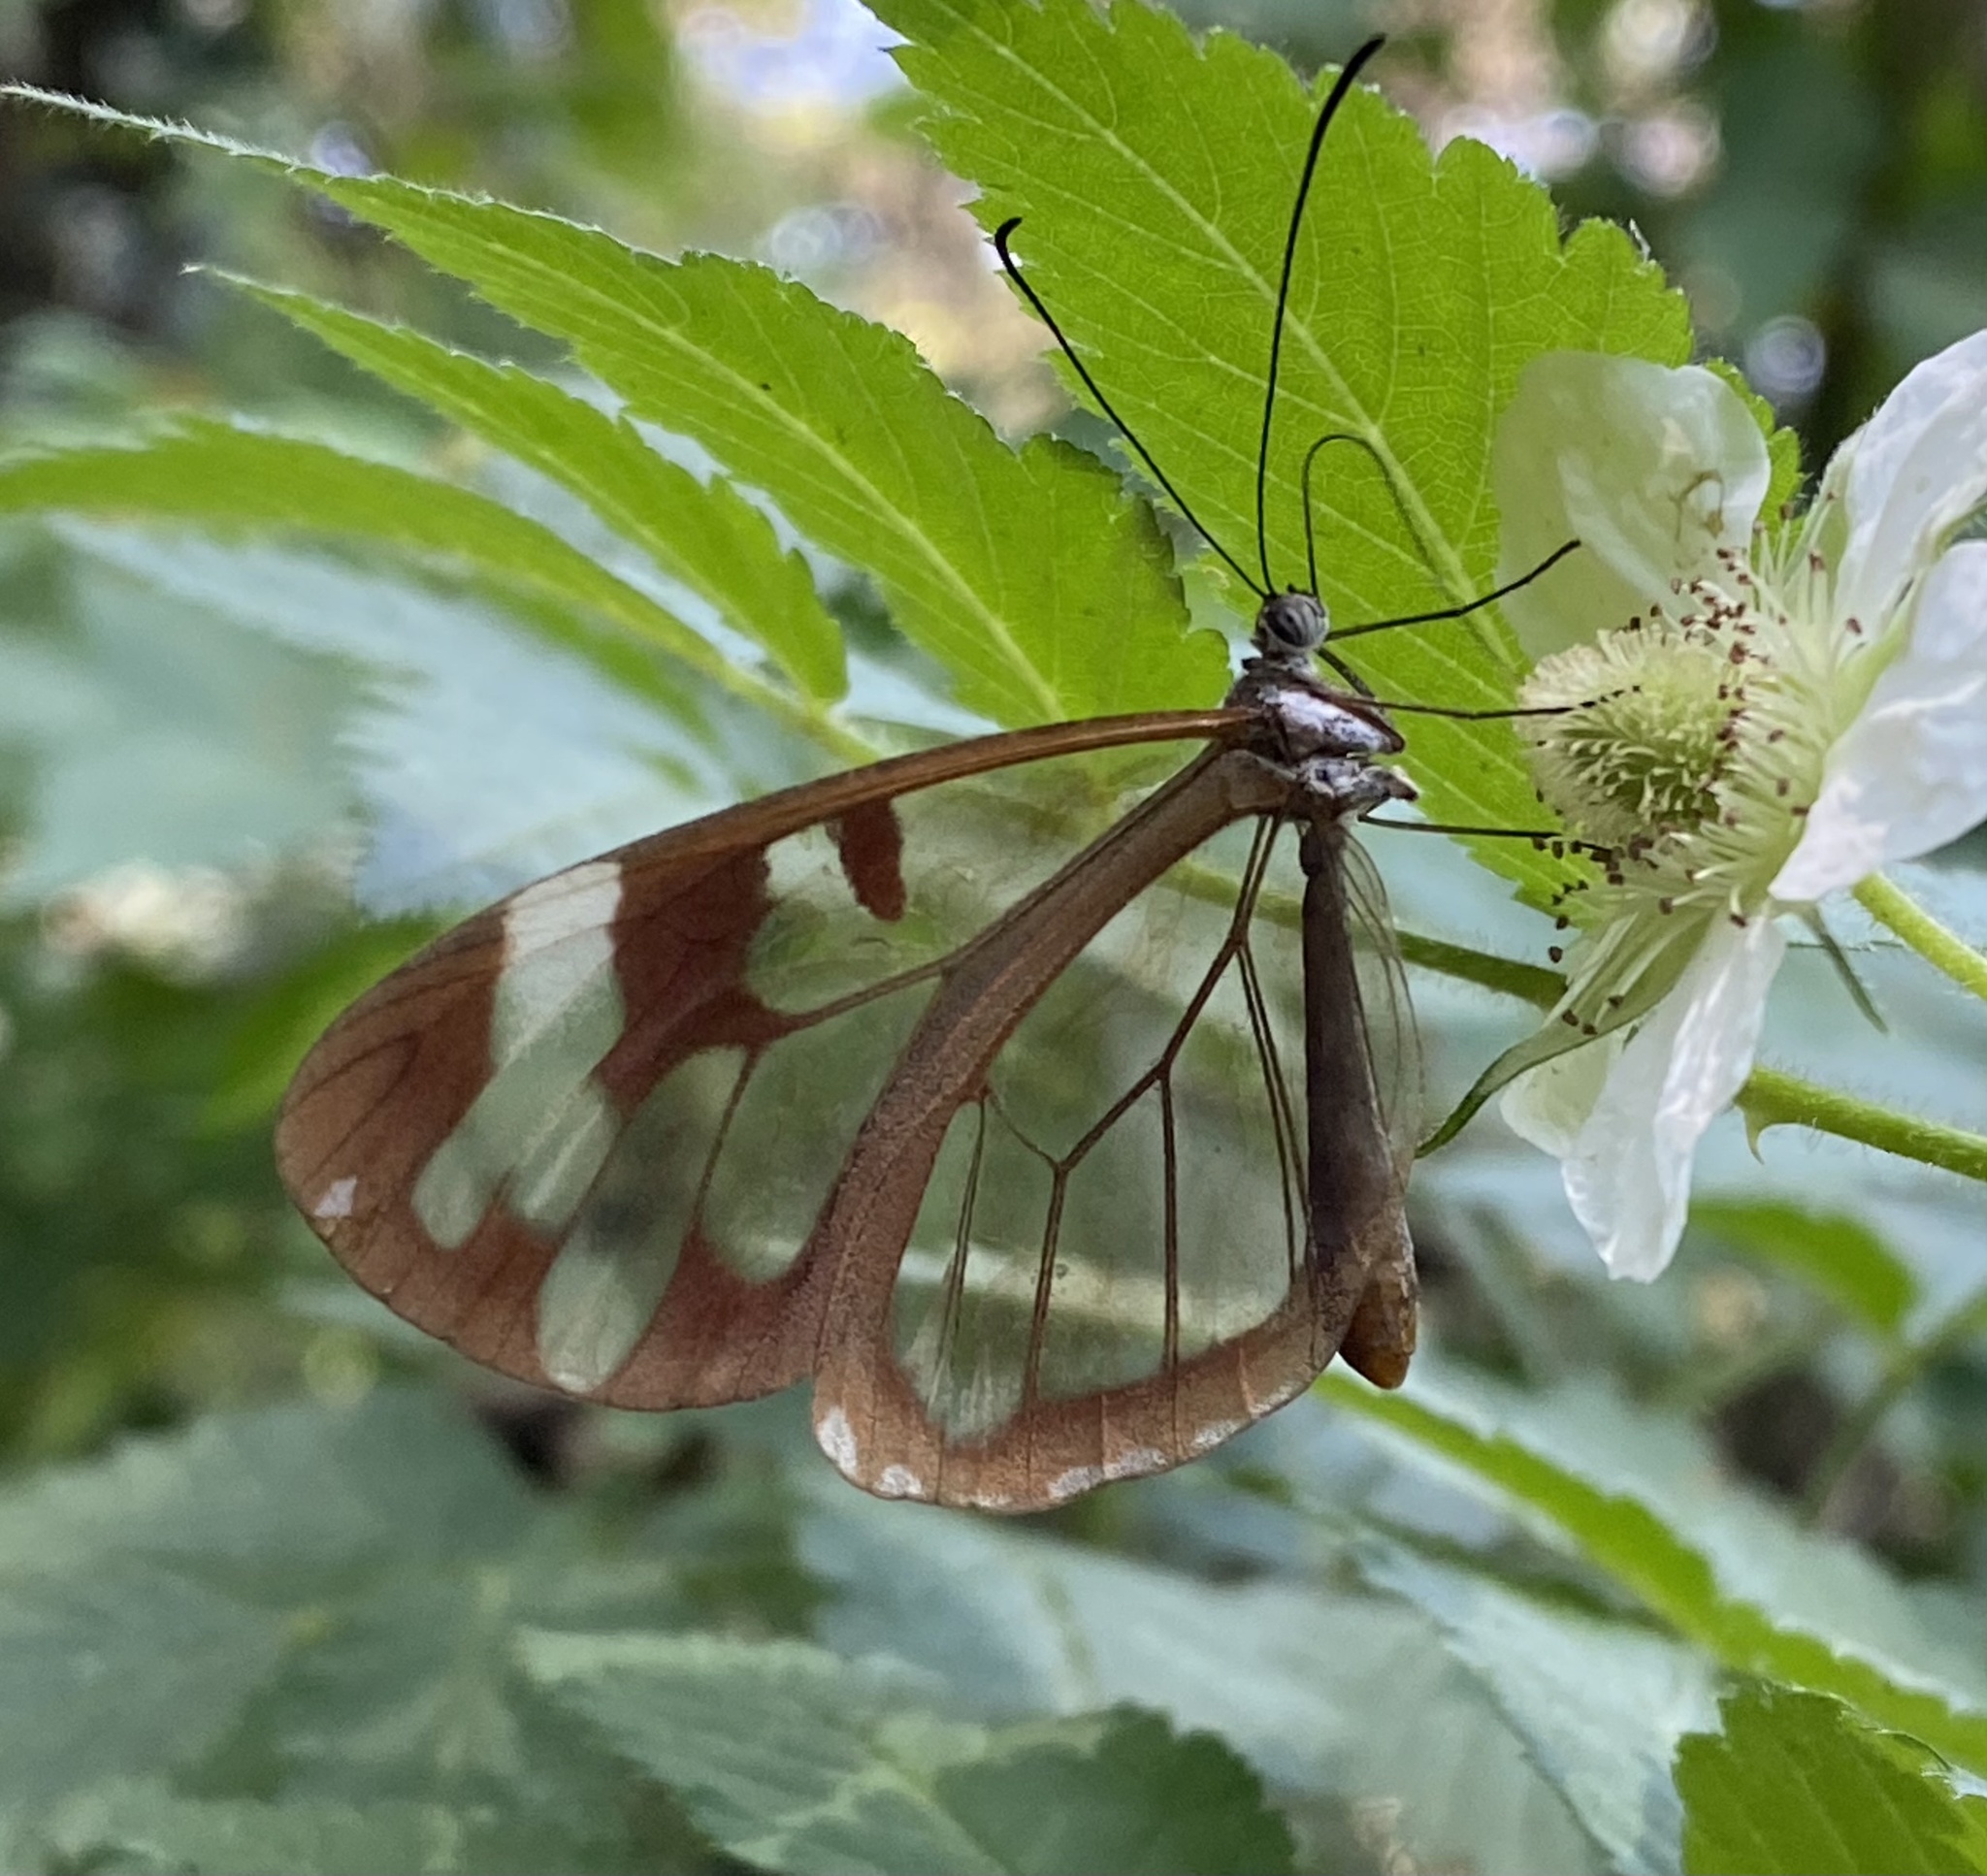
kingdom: Animalia
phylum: Arthropoda
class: Insecta
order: Lepidoptera
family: Nymphalidae
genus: Oleria
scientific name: Oleria zea
